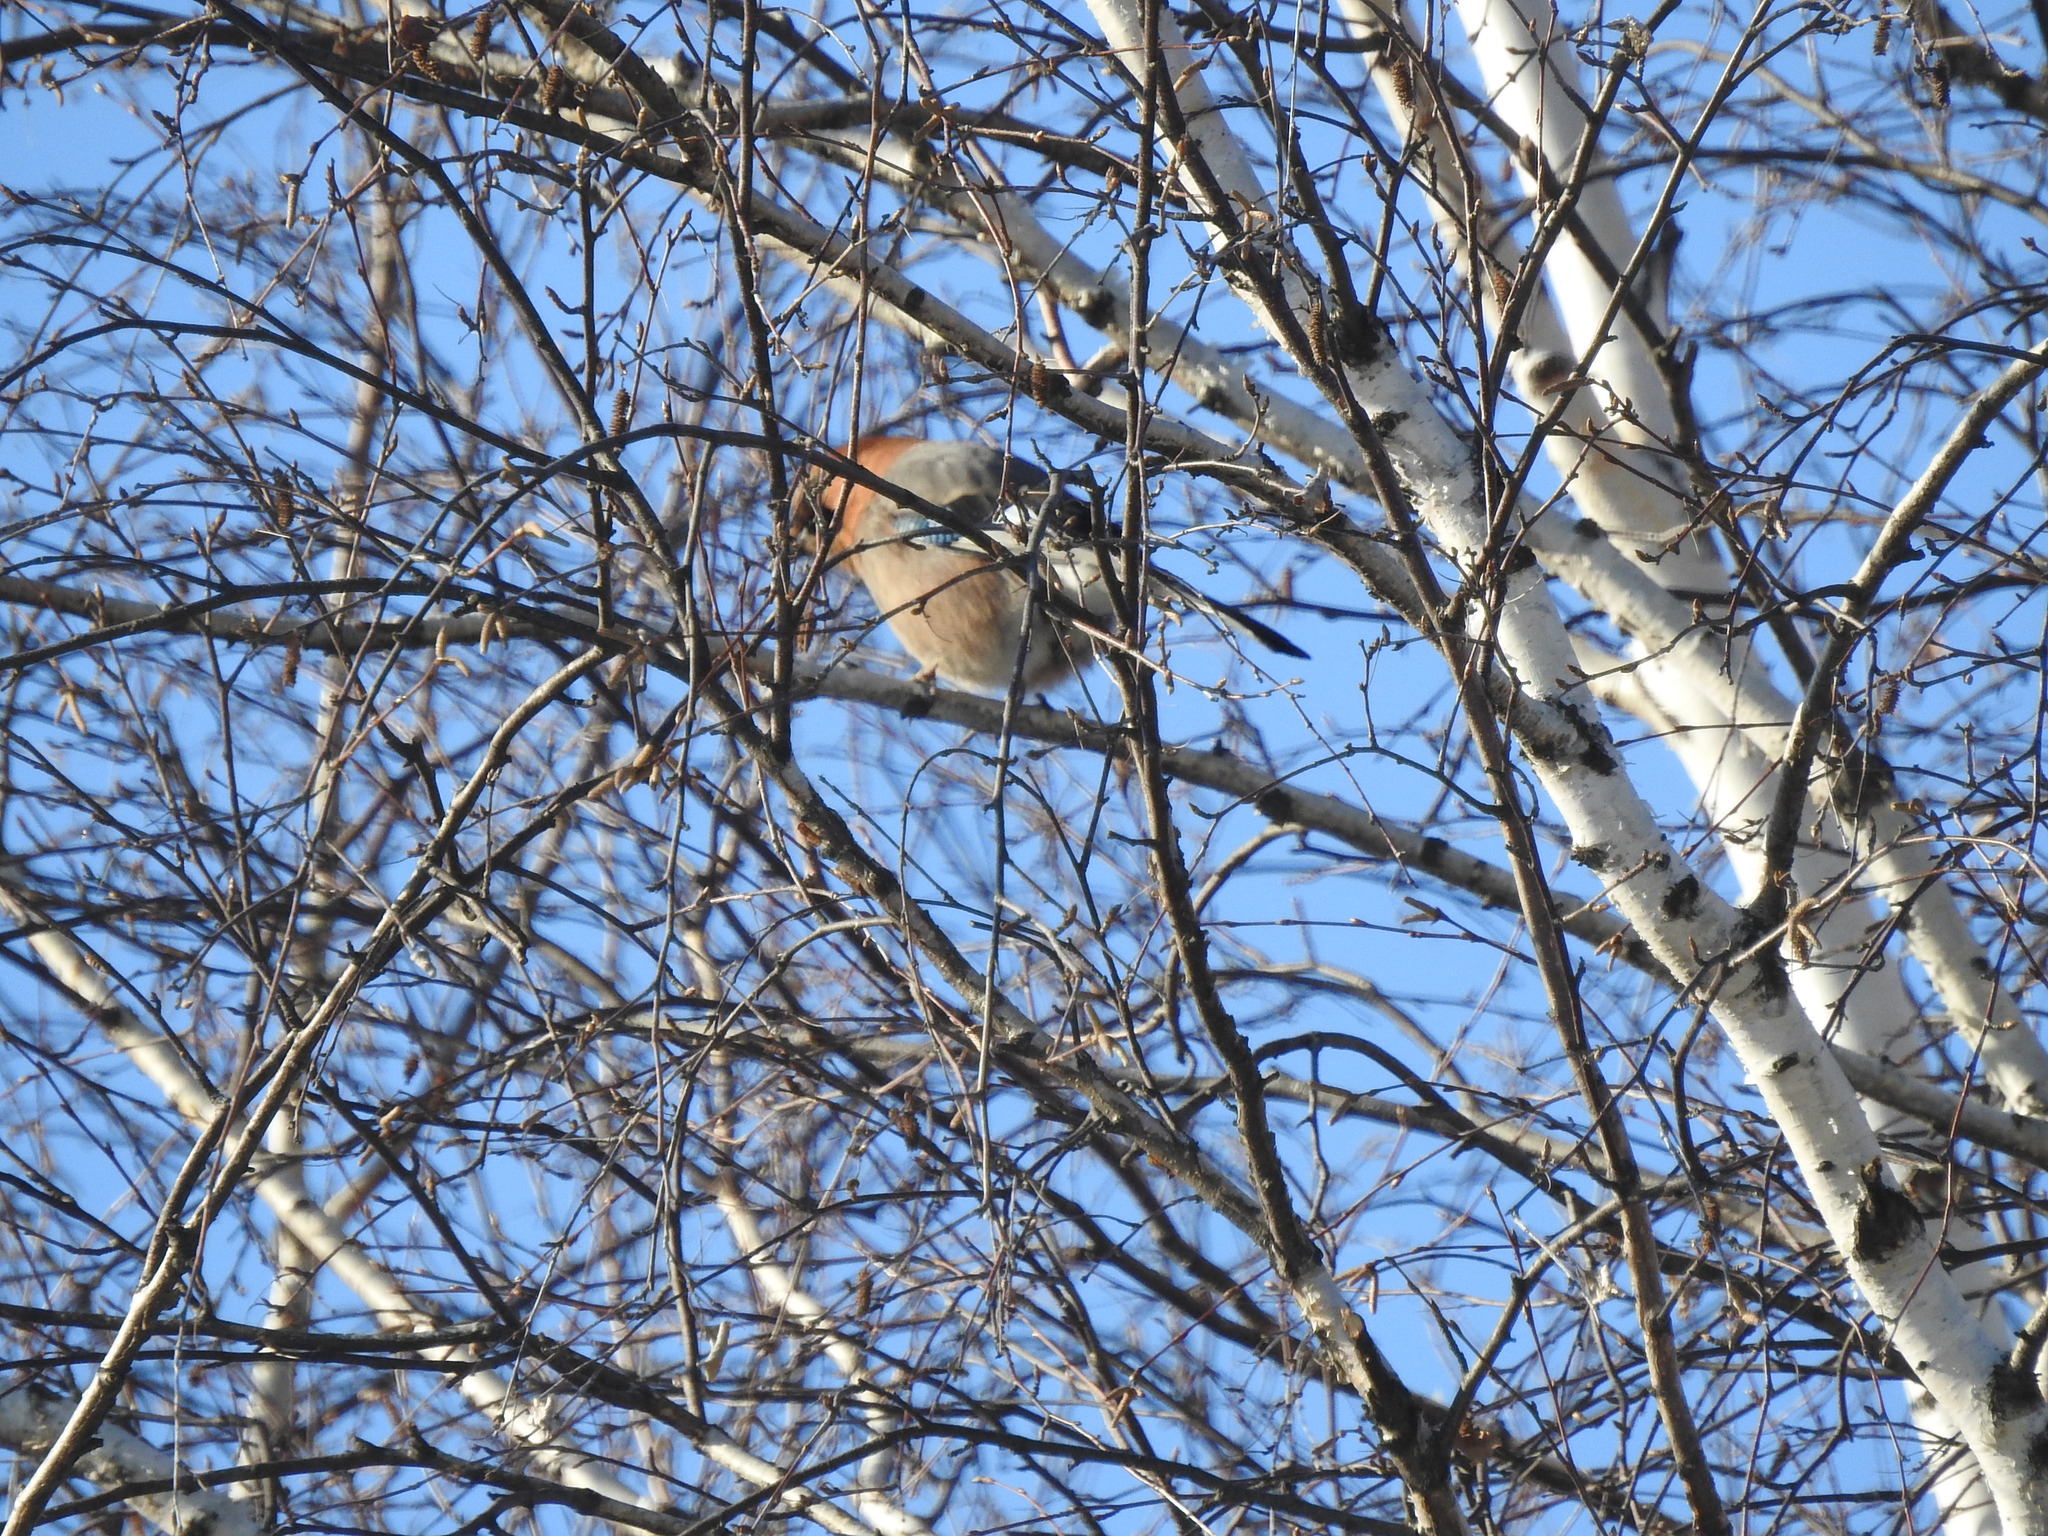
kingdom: Animalia
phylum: Chordata
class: Aves
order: Passeriformes
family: Corvidae
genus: Garrulus
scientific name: Garrulus glandarius
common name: Eurasian jay
